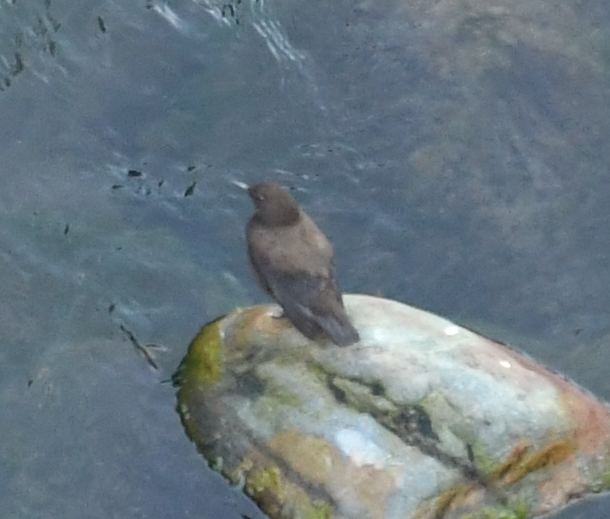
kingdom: Animalia
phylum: Chordata
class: Aves
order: Passeriformes
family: Cinclidae
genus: Cinclus
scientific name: Cinclus pallasii
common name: Brown dipper
